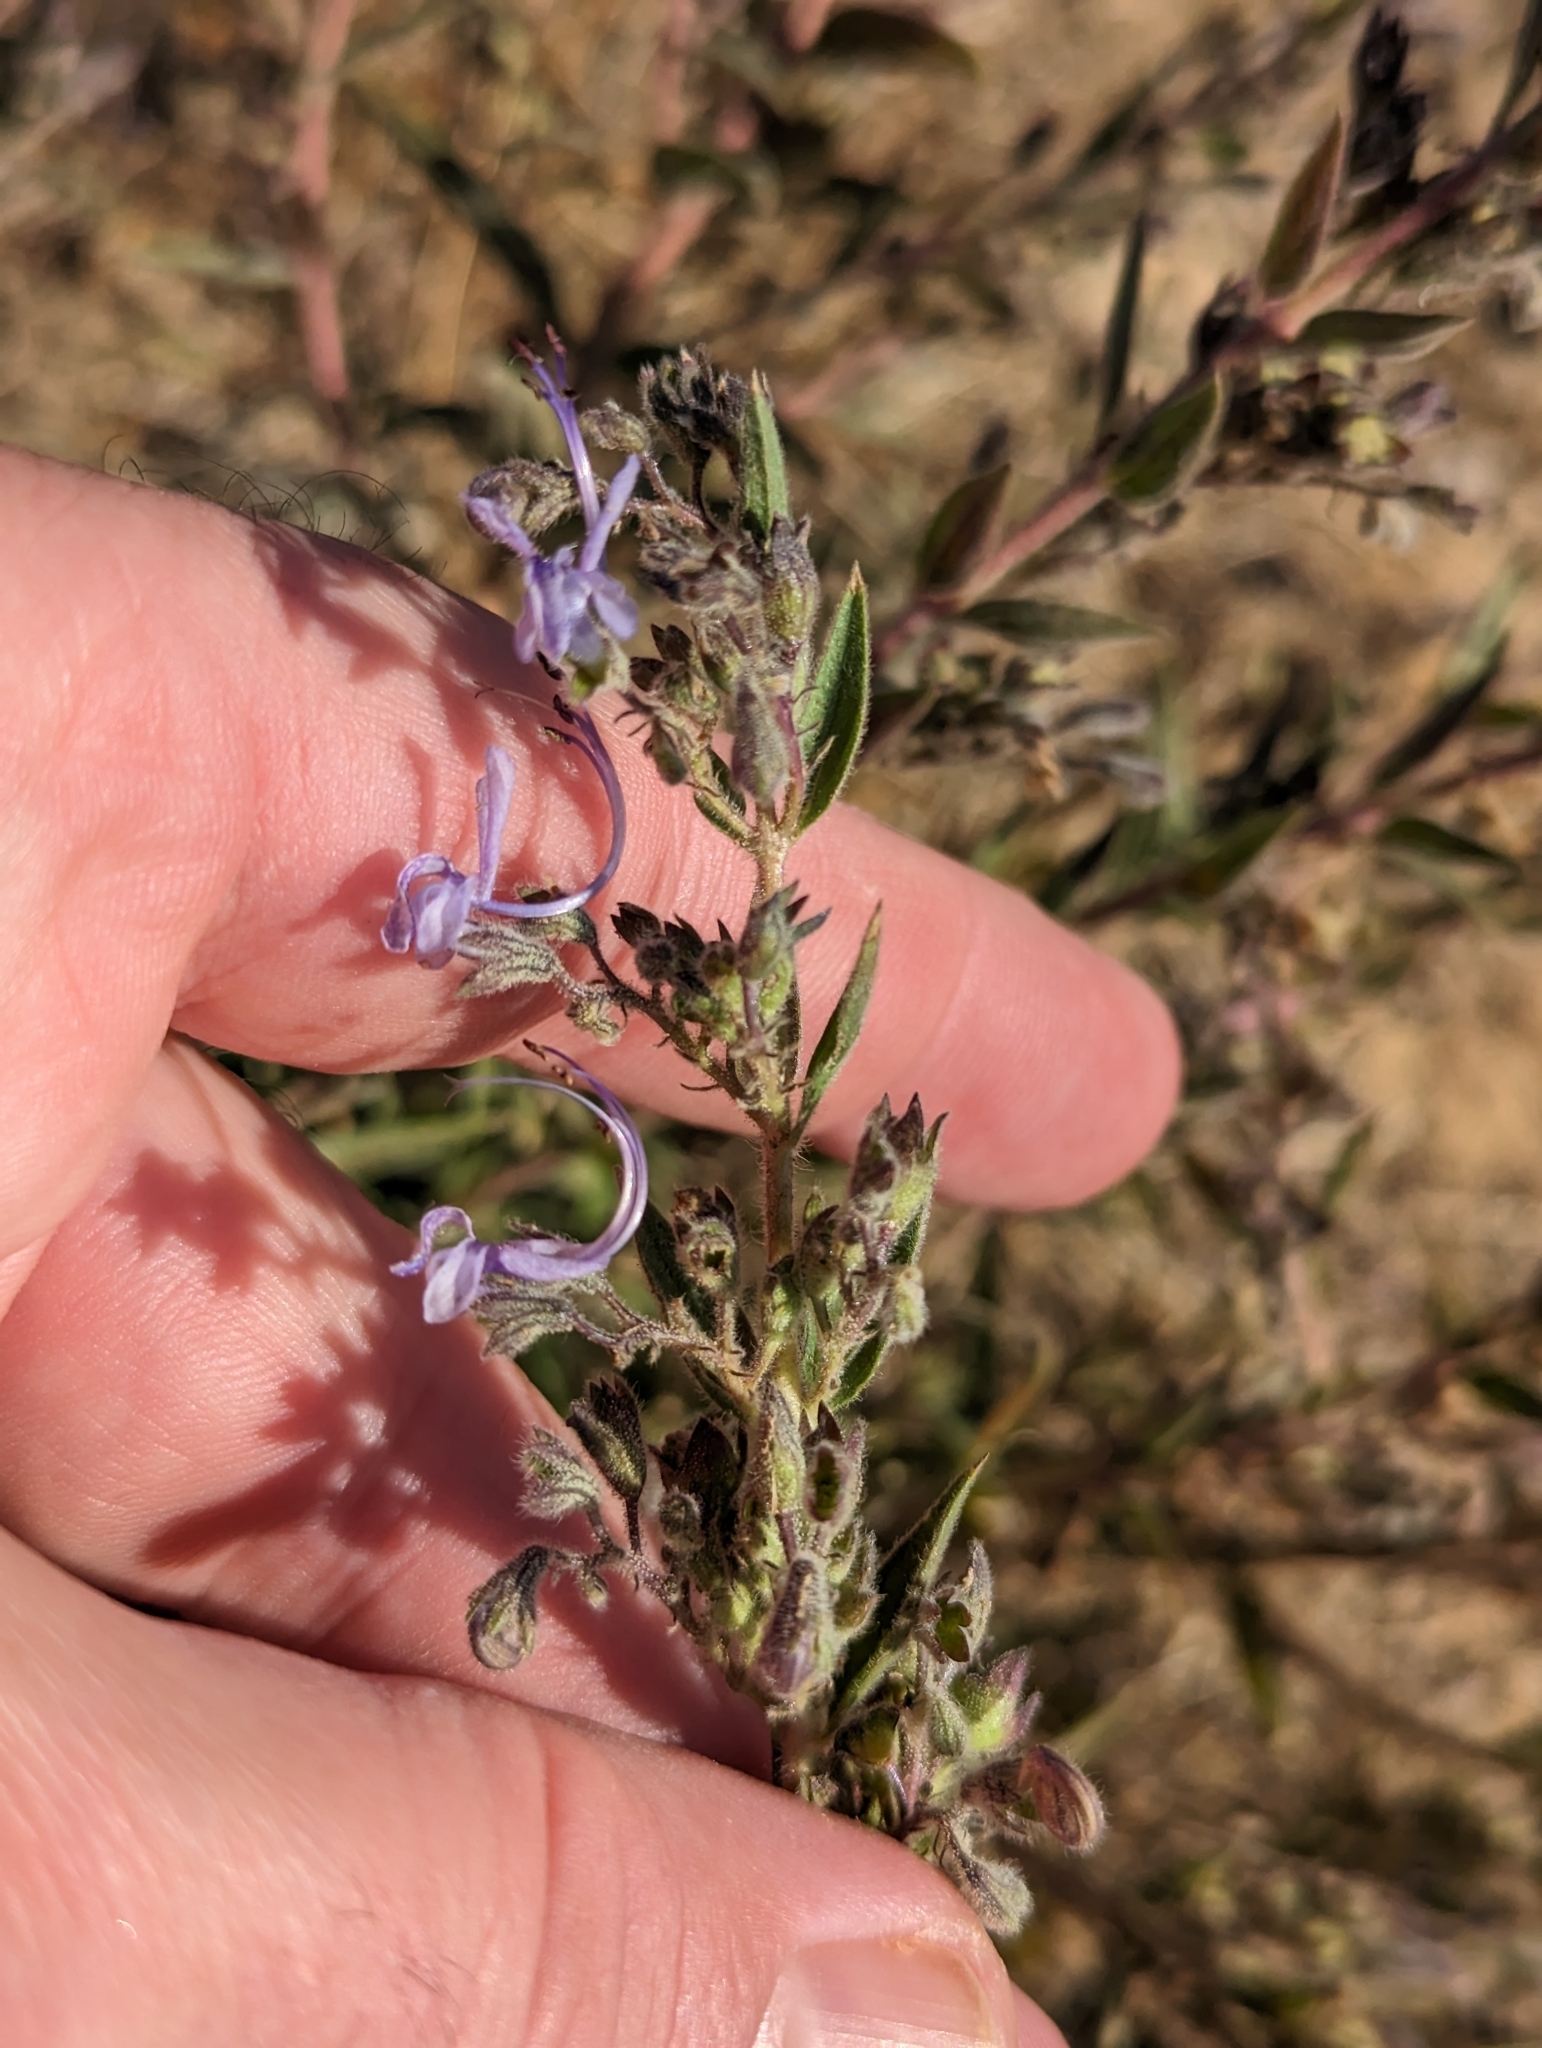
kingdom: Plantae
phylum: Tracheophyta
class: Magnoliopsida
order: Lamiales
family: Lamiaceae
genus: Trichostema
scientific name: Trichostema lanceolatum
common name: Vinegar-weed
